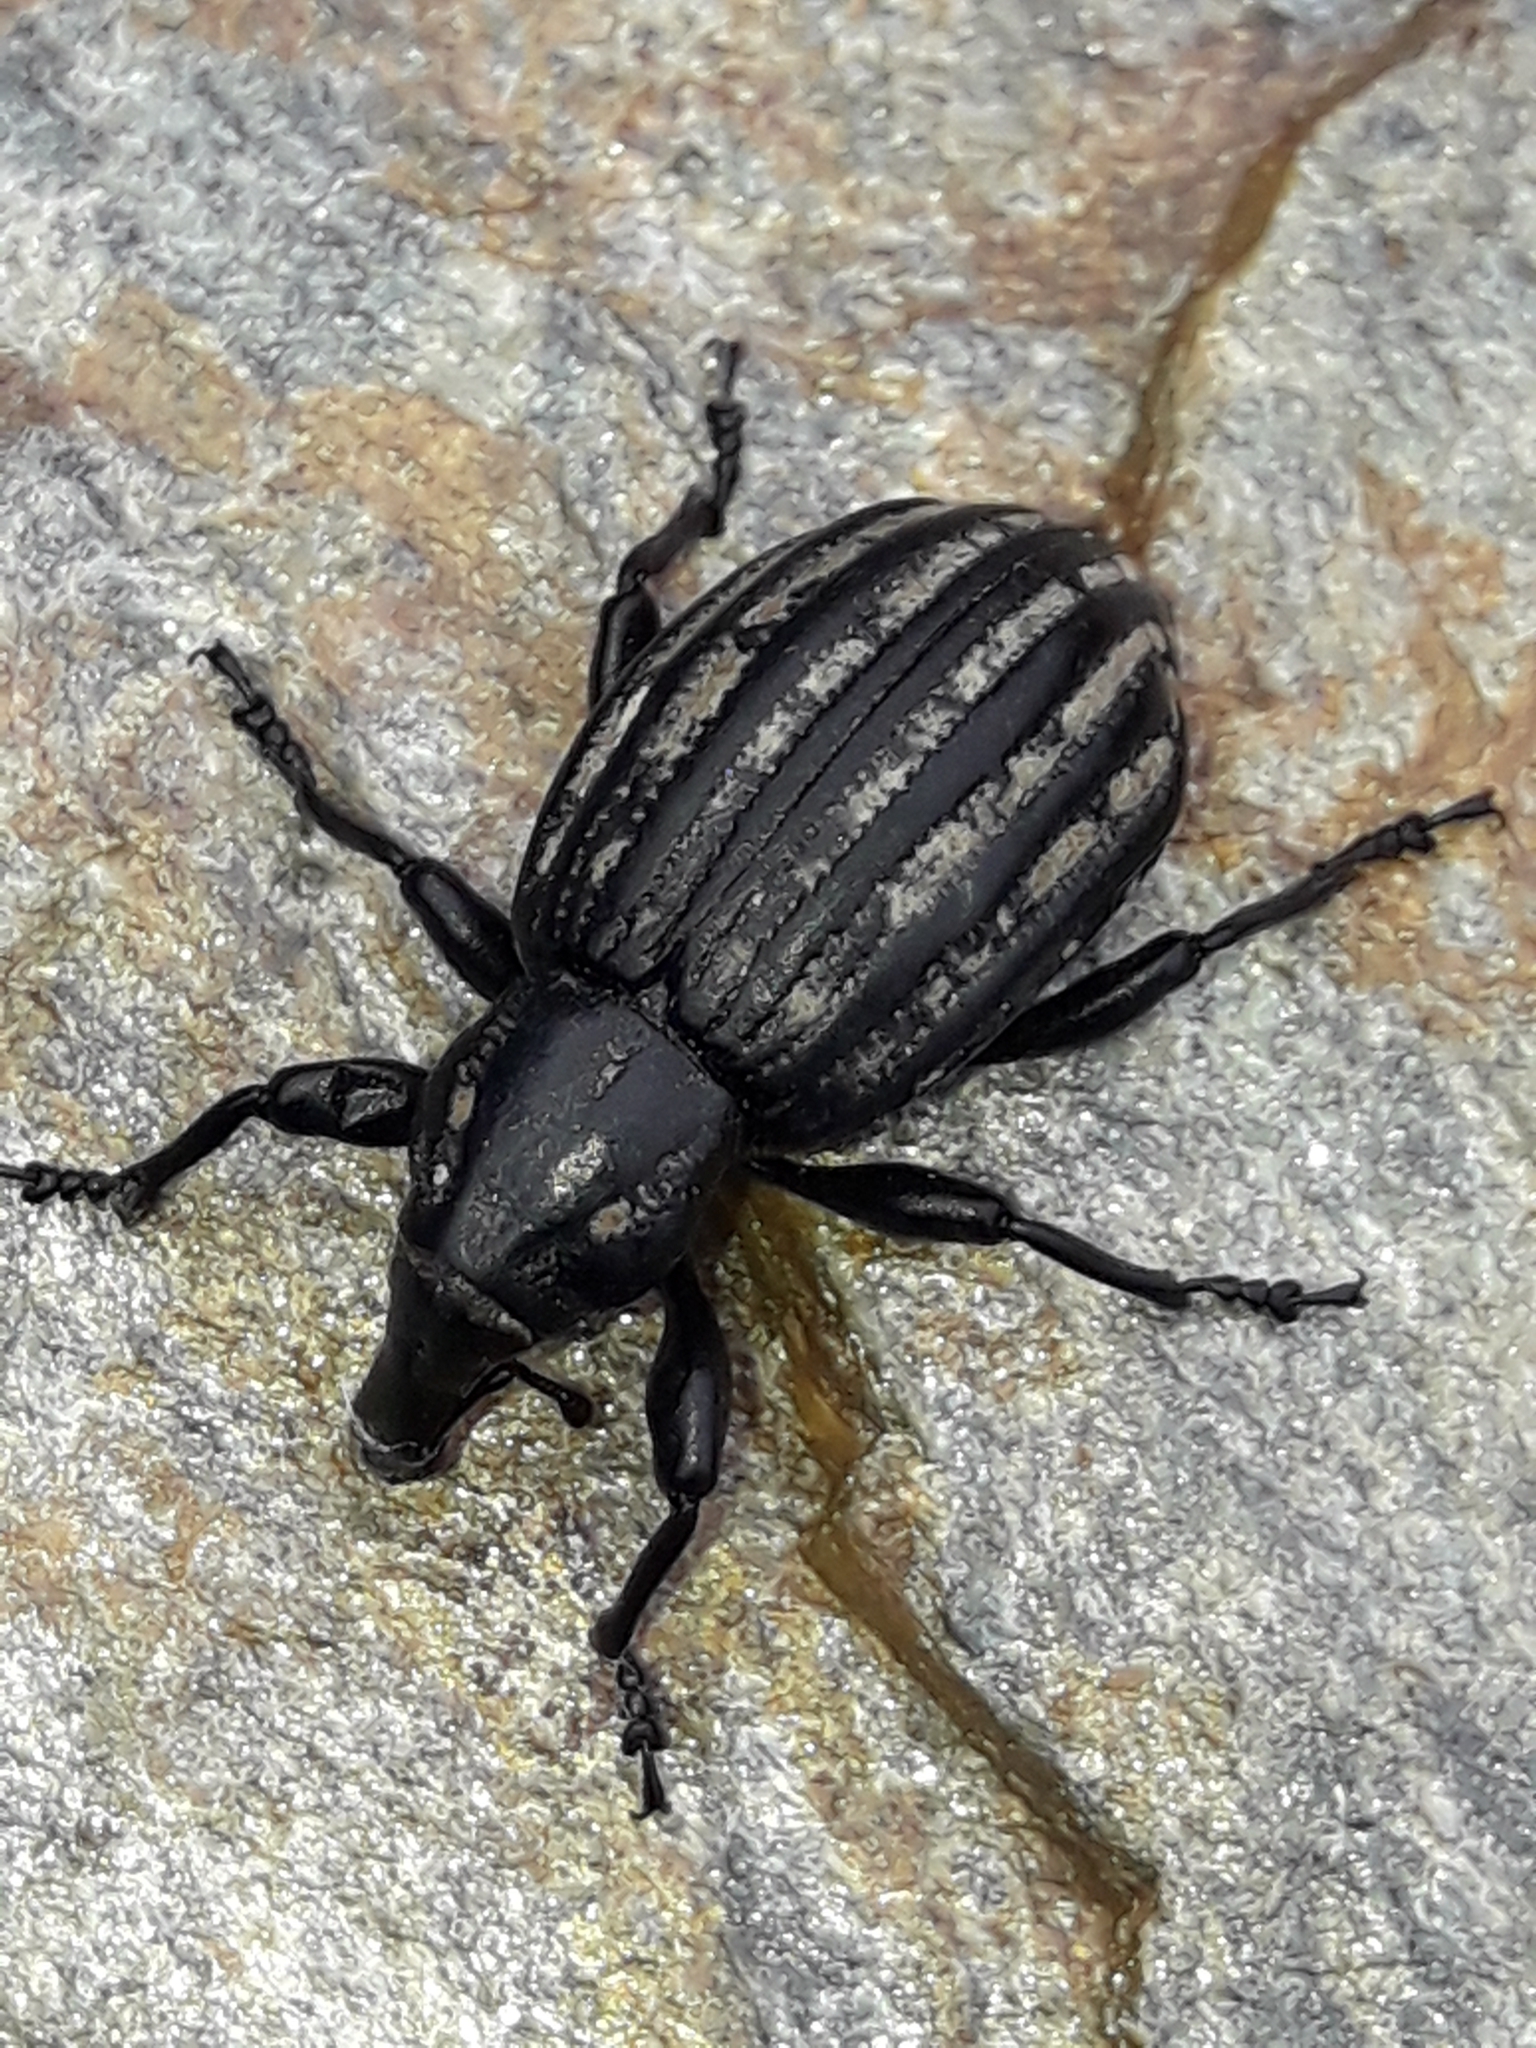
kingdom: Animalia
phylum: Arthropoda
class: Insecta
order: Coleoptera
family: Curculionidae
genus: Lyperobius
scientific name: Lyperobius hudsoni
